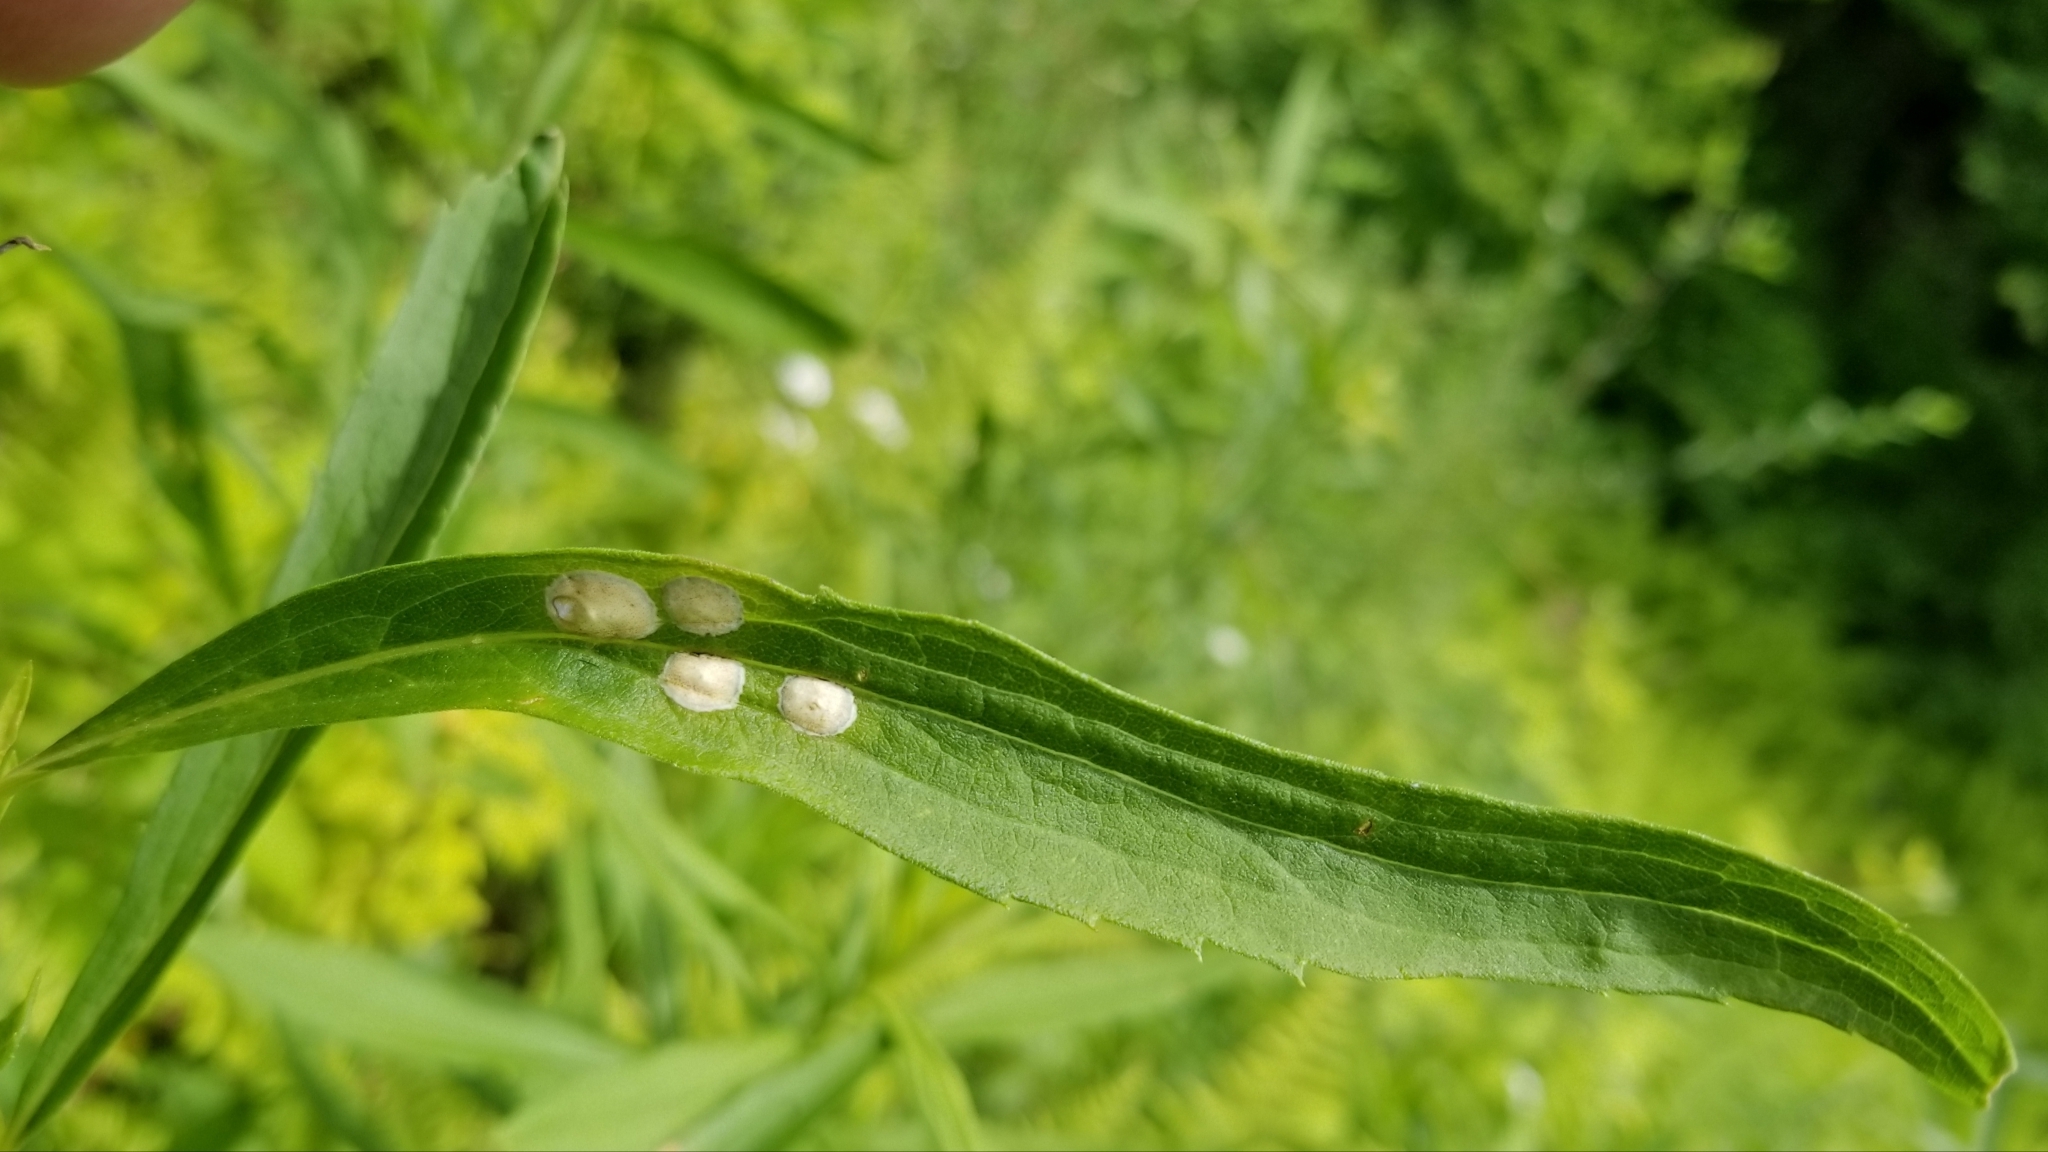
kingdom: Animalia
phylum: Arthropoda
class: Insecta
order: Diptera
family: Cecidomyiidae
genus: Asteromyia
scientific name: Asteromyia carbonifera
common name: Carbonifera goldenrod gall midge
